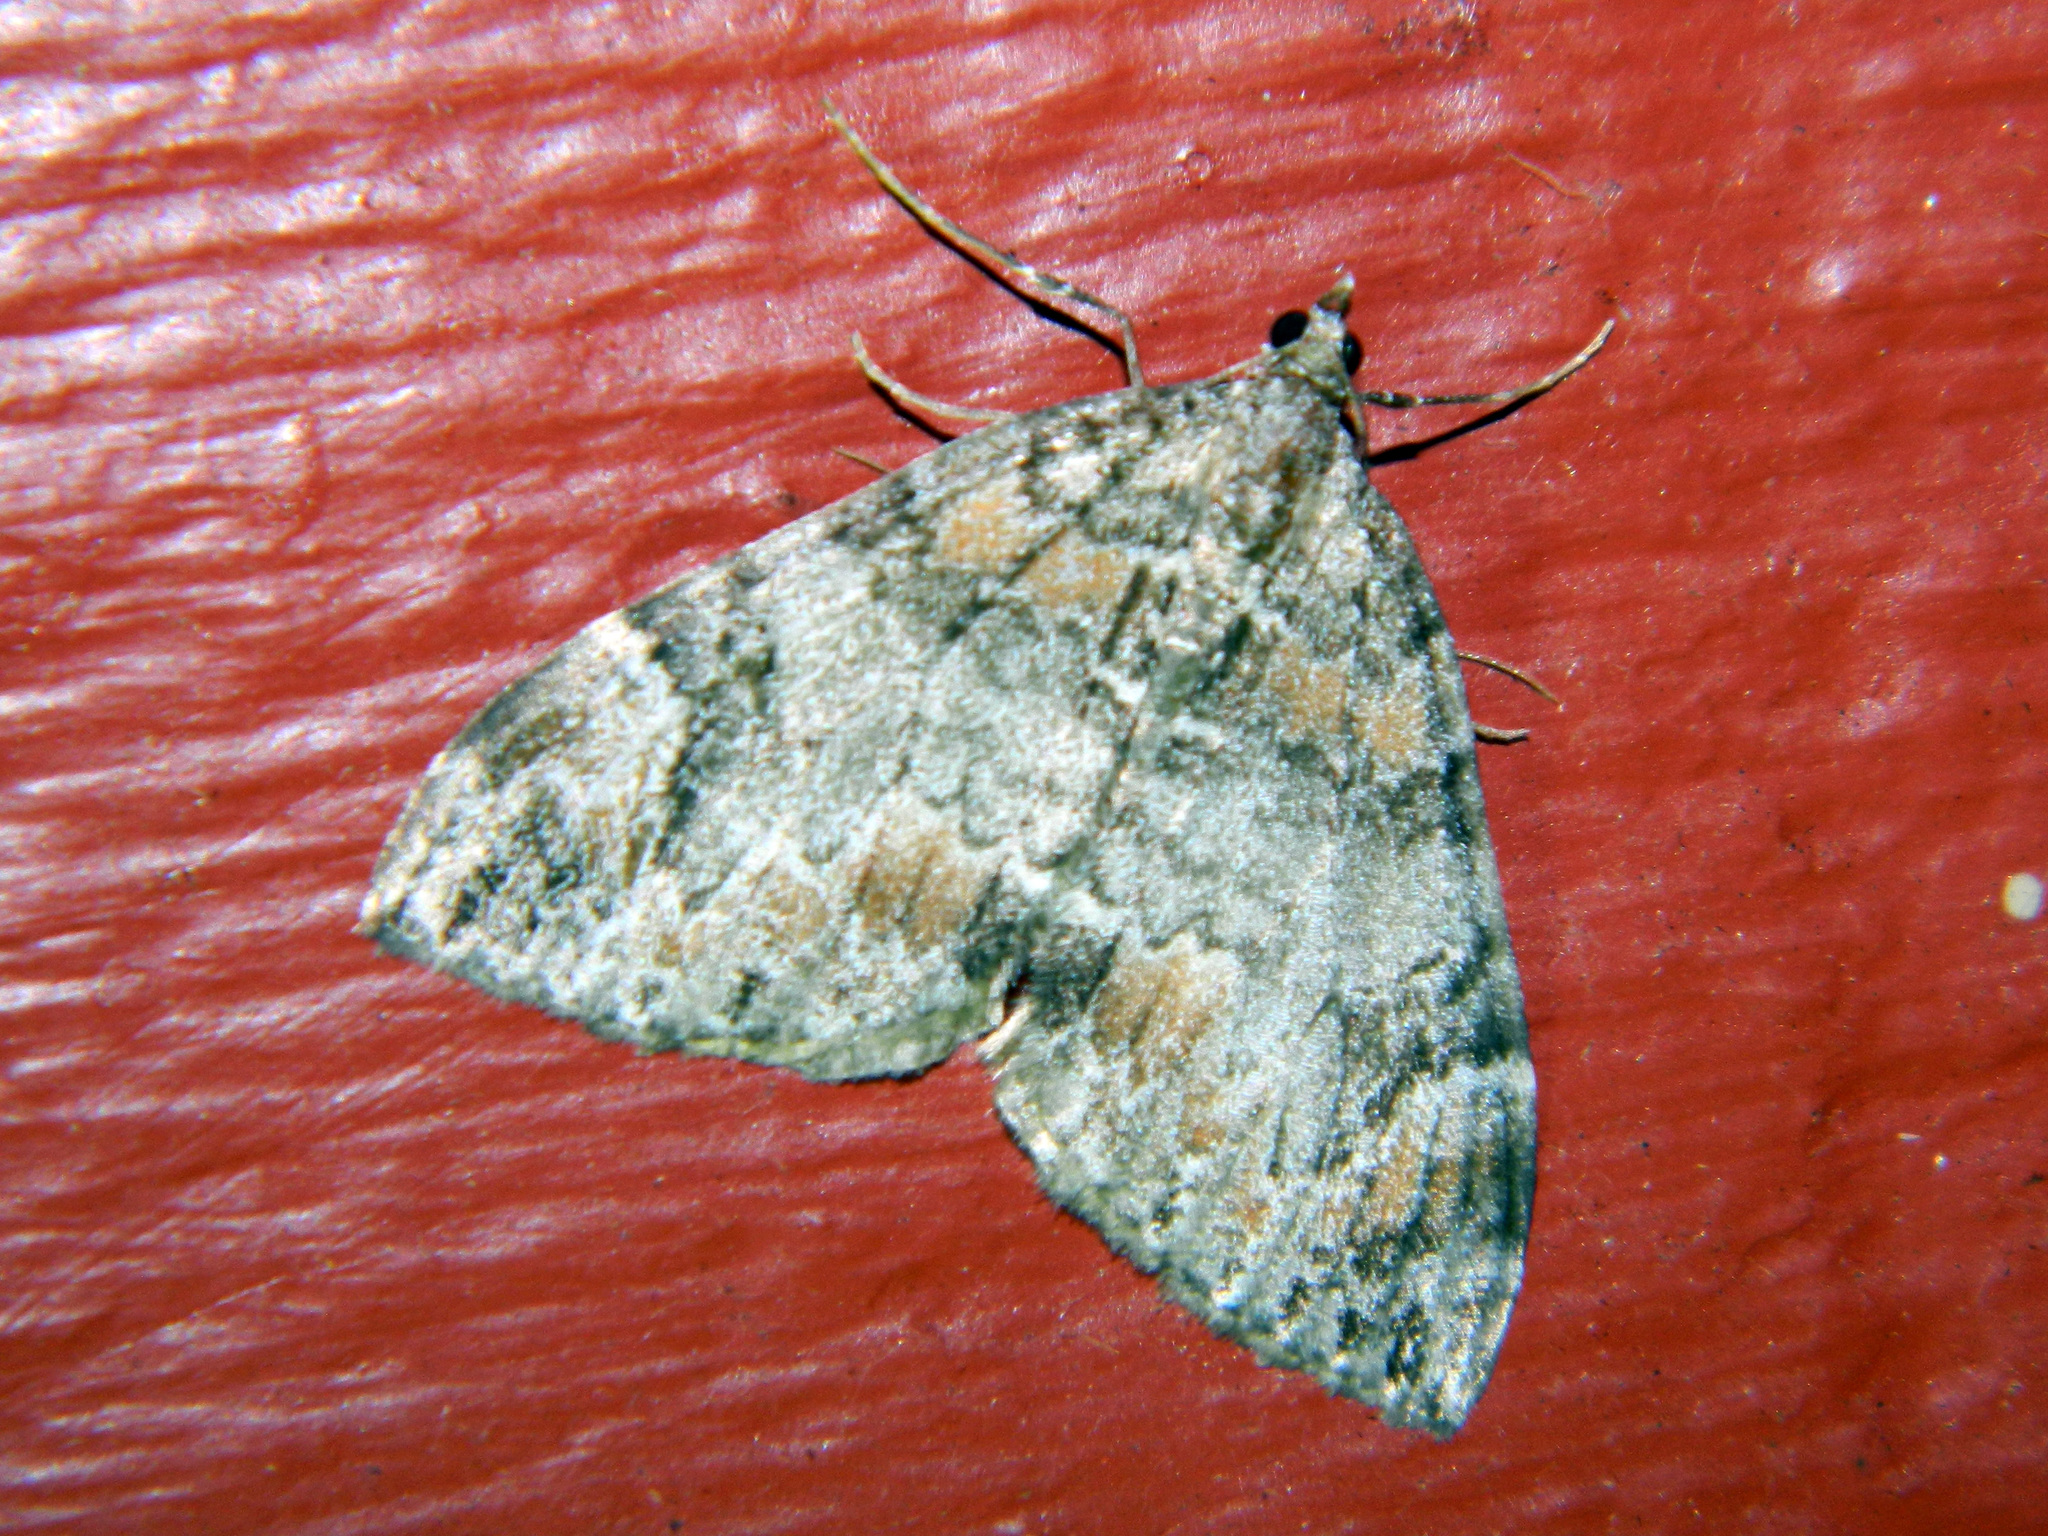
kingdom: Animalia
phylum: Arthropoda
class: Insecta
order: Lepidoptera
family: Geometridae
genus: Dysstroma
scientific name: Dysstroma citrata
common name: Dark marbled carpet
